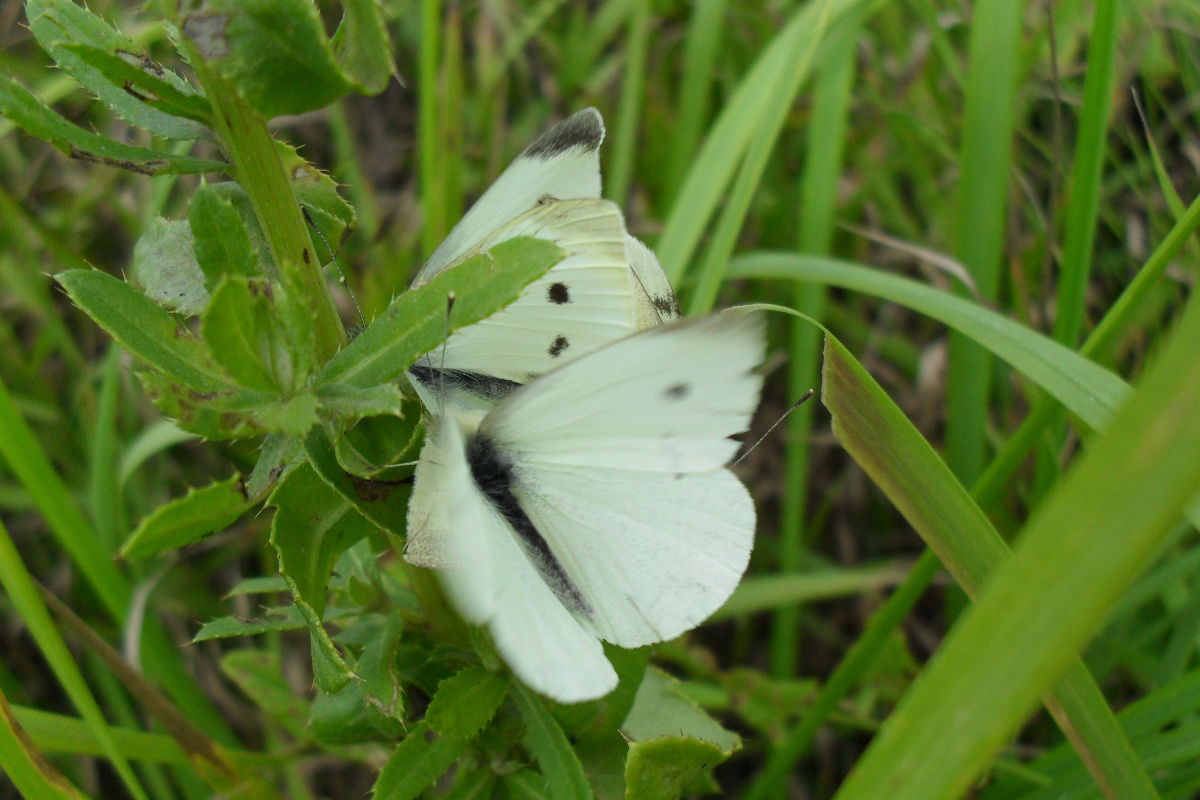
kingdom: Animalia
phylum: Arthropoda
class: Insecta
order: Lepidoptera
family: Pieridae
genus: Pieris
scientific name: Pieris rapae
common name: Small white
